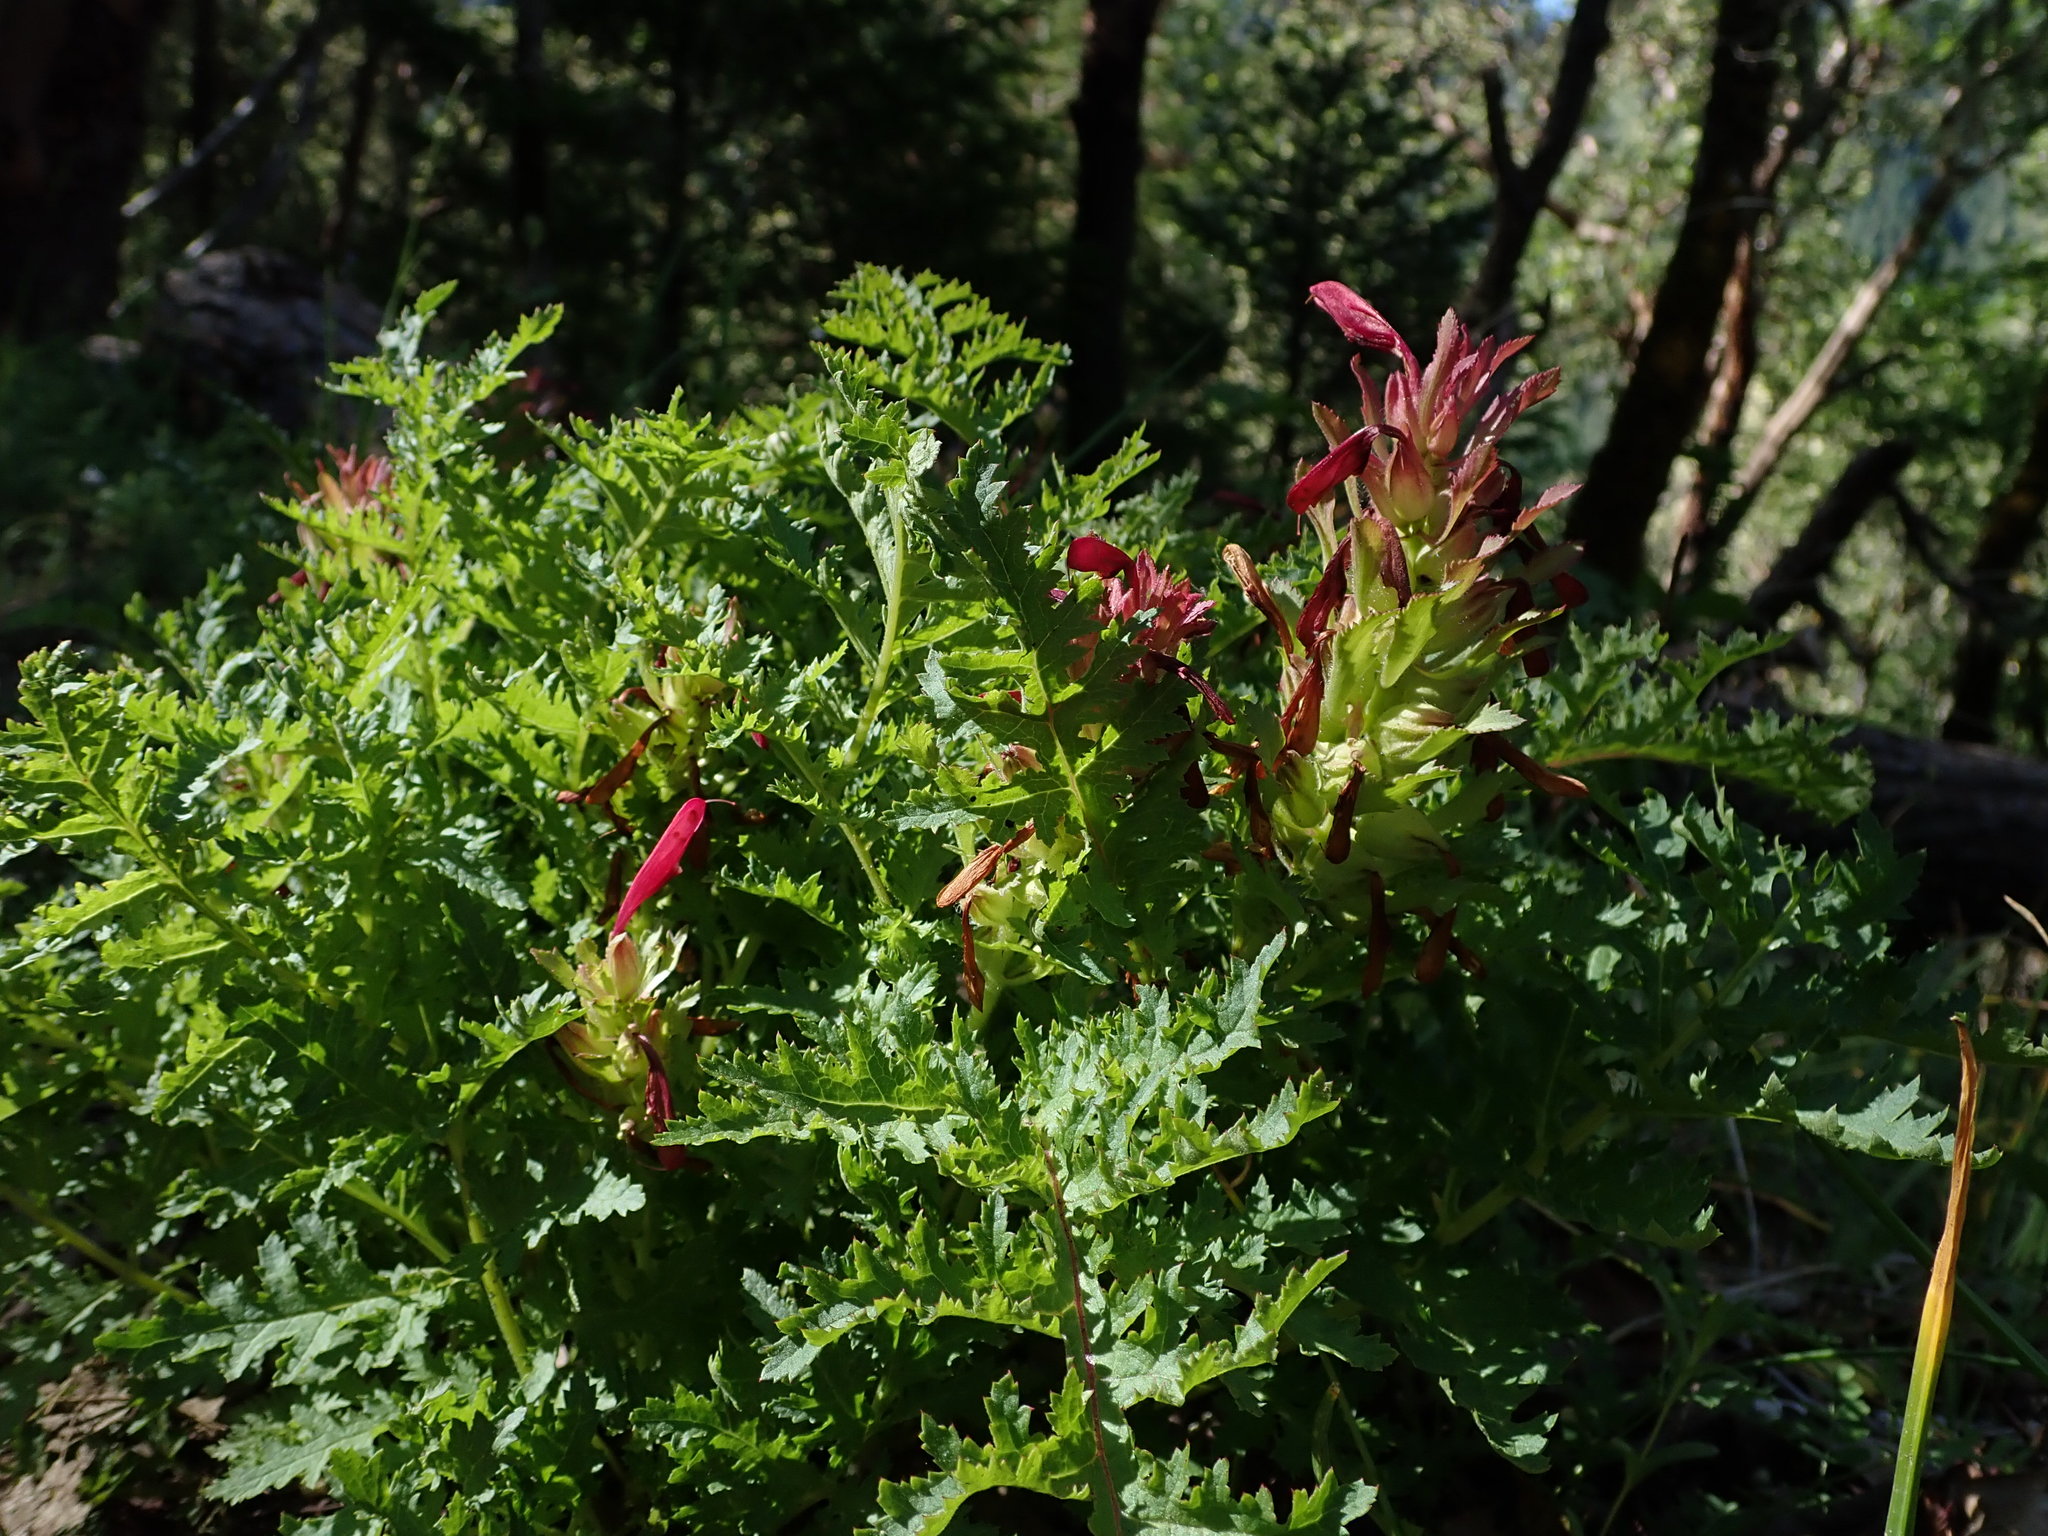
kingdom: Plantae
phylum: Tracheophyta
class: Magnoliopsida
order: Lamiales
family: Orobanchaceae
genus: Pedicularis
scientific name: Pedicularis densiflora
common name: Indian warrior
